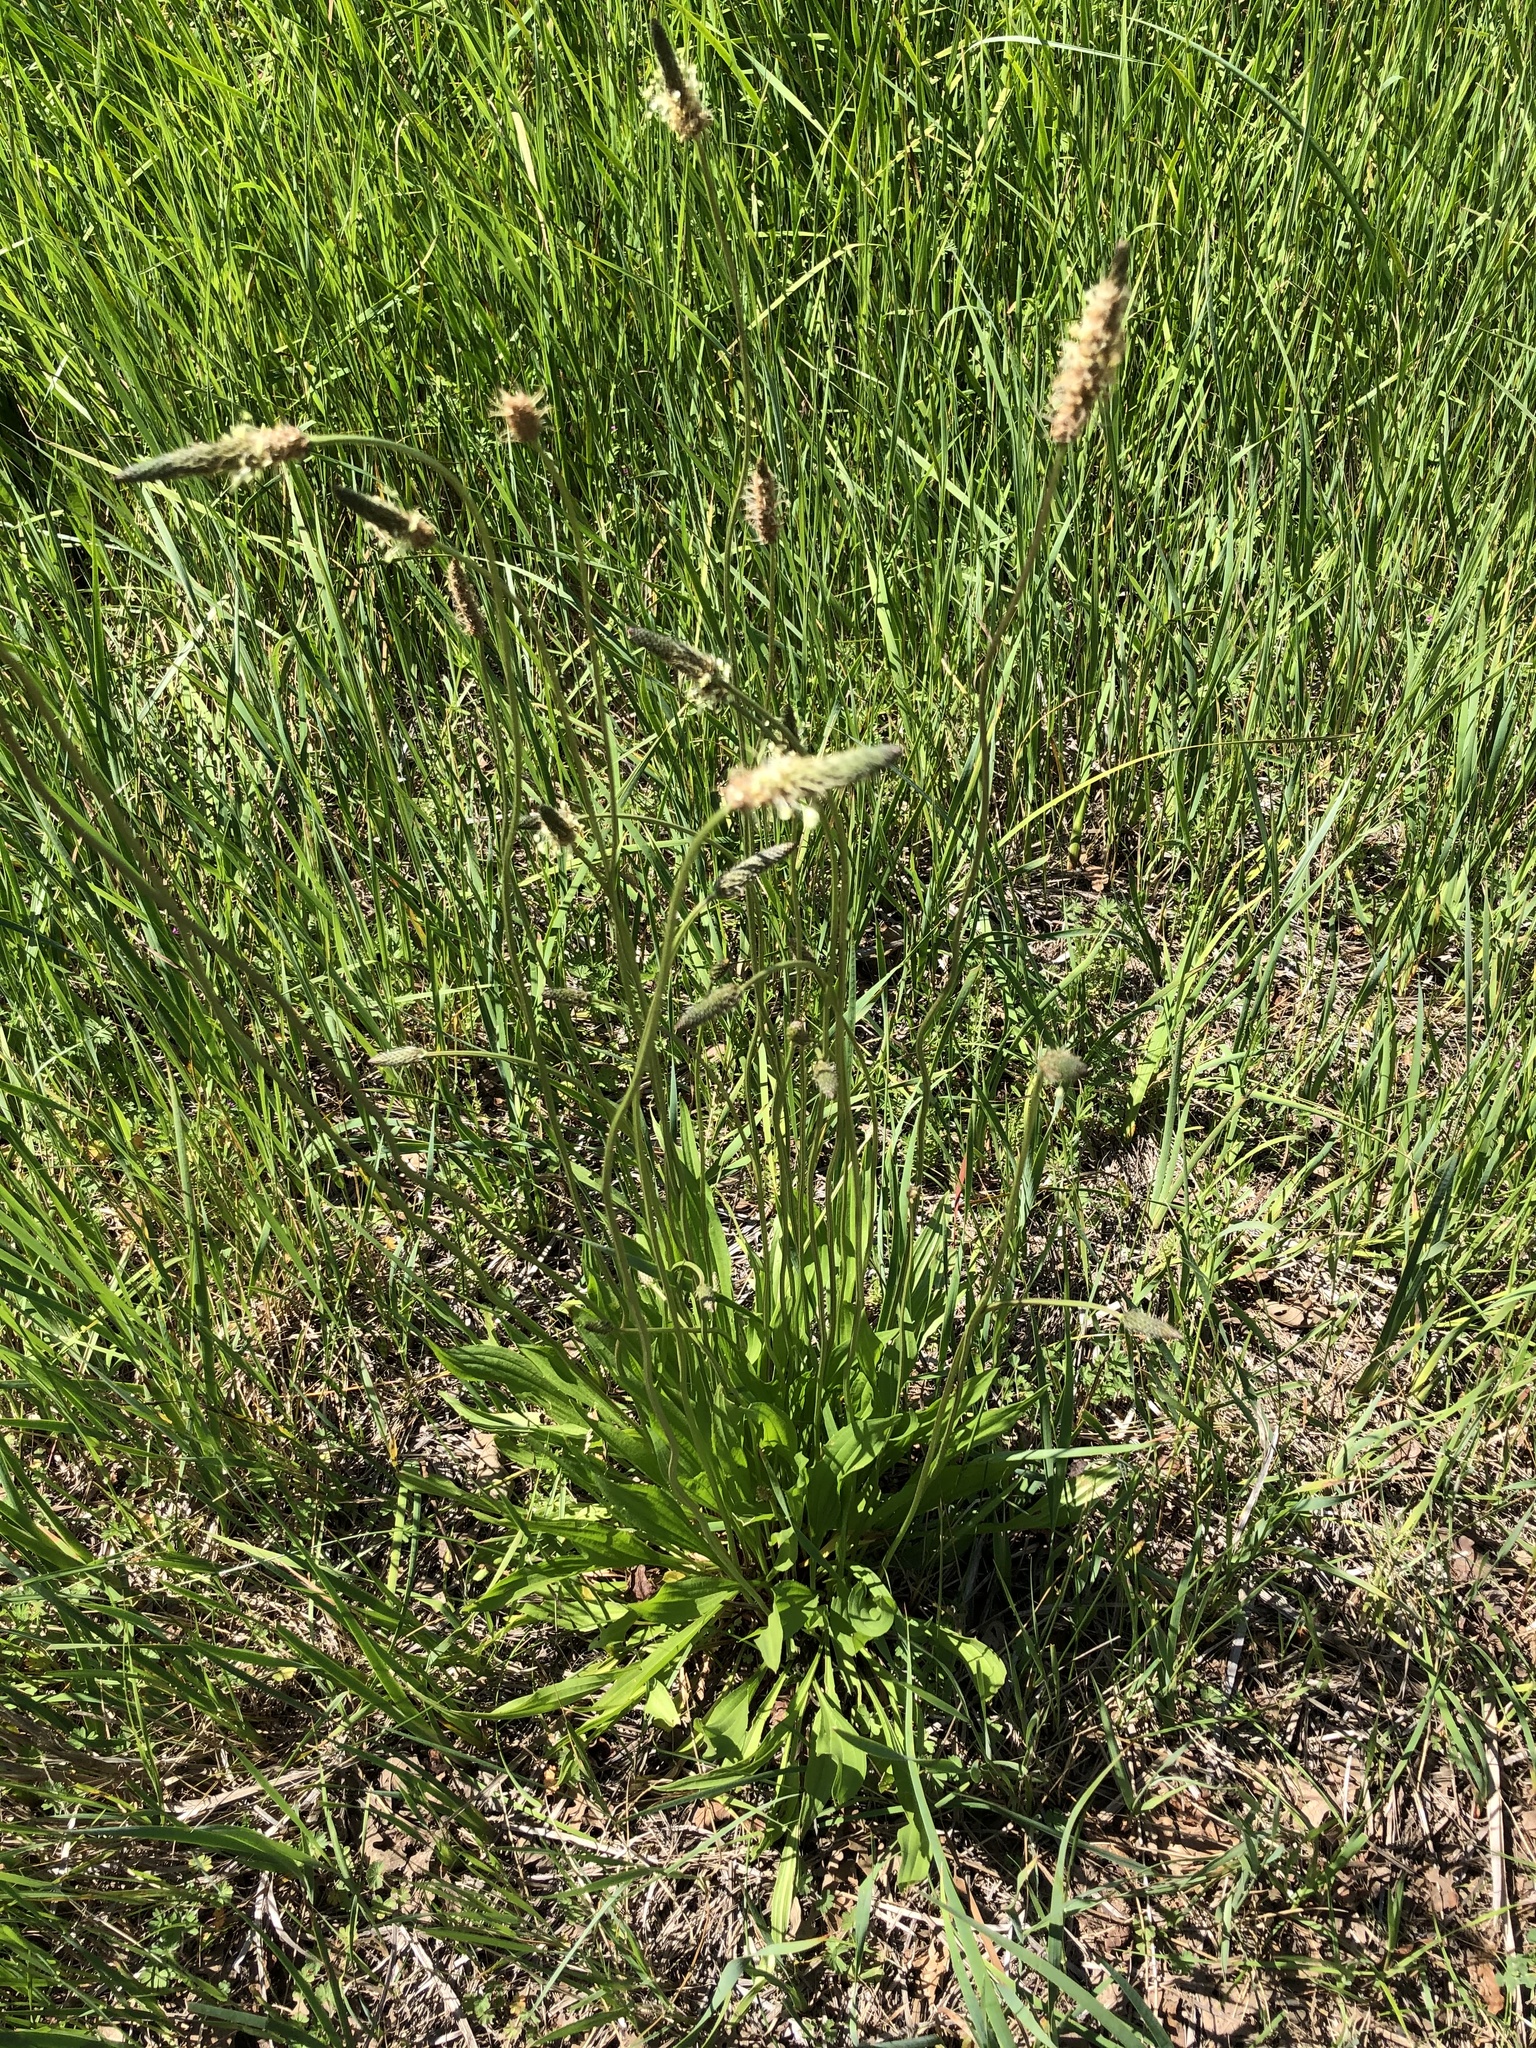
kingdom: Plantae
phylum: Tracheophyta
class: Magnoliopsida
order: Lamiales
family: Plantaginaceae
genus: Plantago
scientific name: Plantago lanceolata
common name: Ribwort plantain
